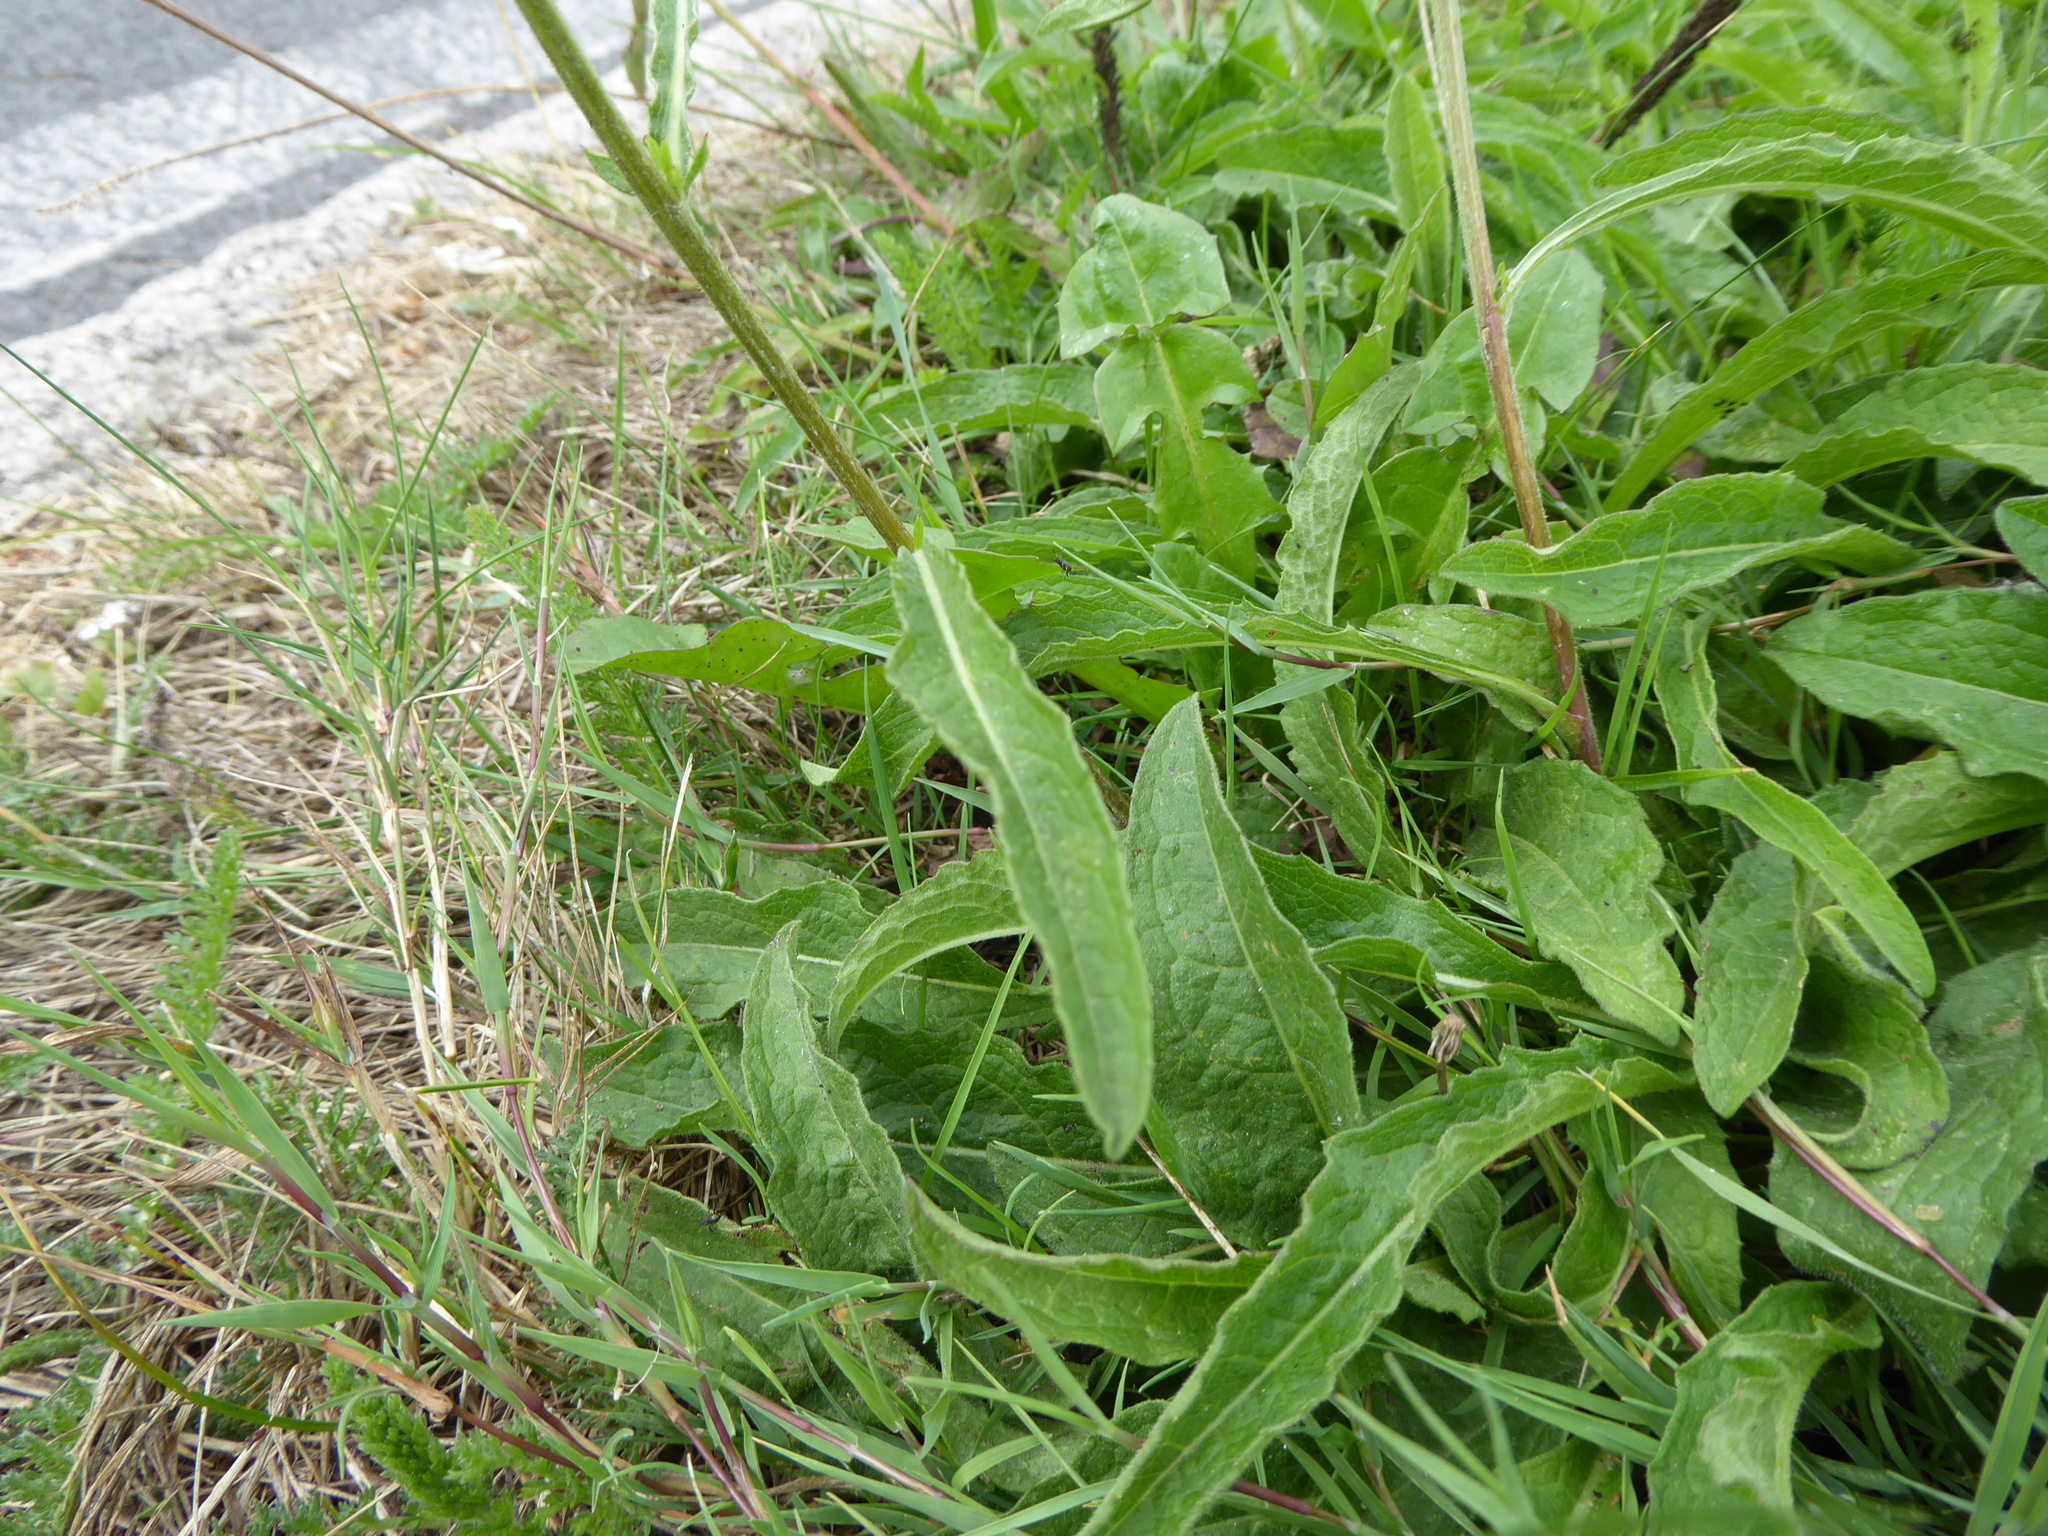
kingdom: Plantae
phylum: Tracheophyta
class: Magnoliopsida
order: Asterales
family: Asteraceae
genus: Centaurea
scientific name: Centaurea nigra
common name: Lesser knapweed
